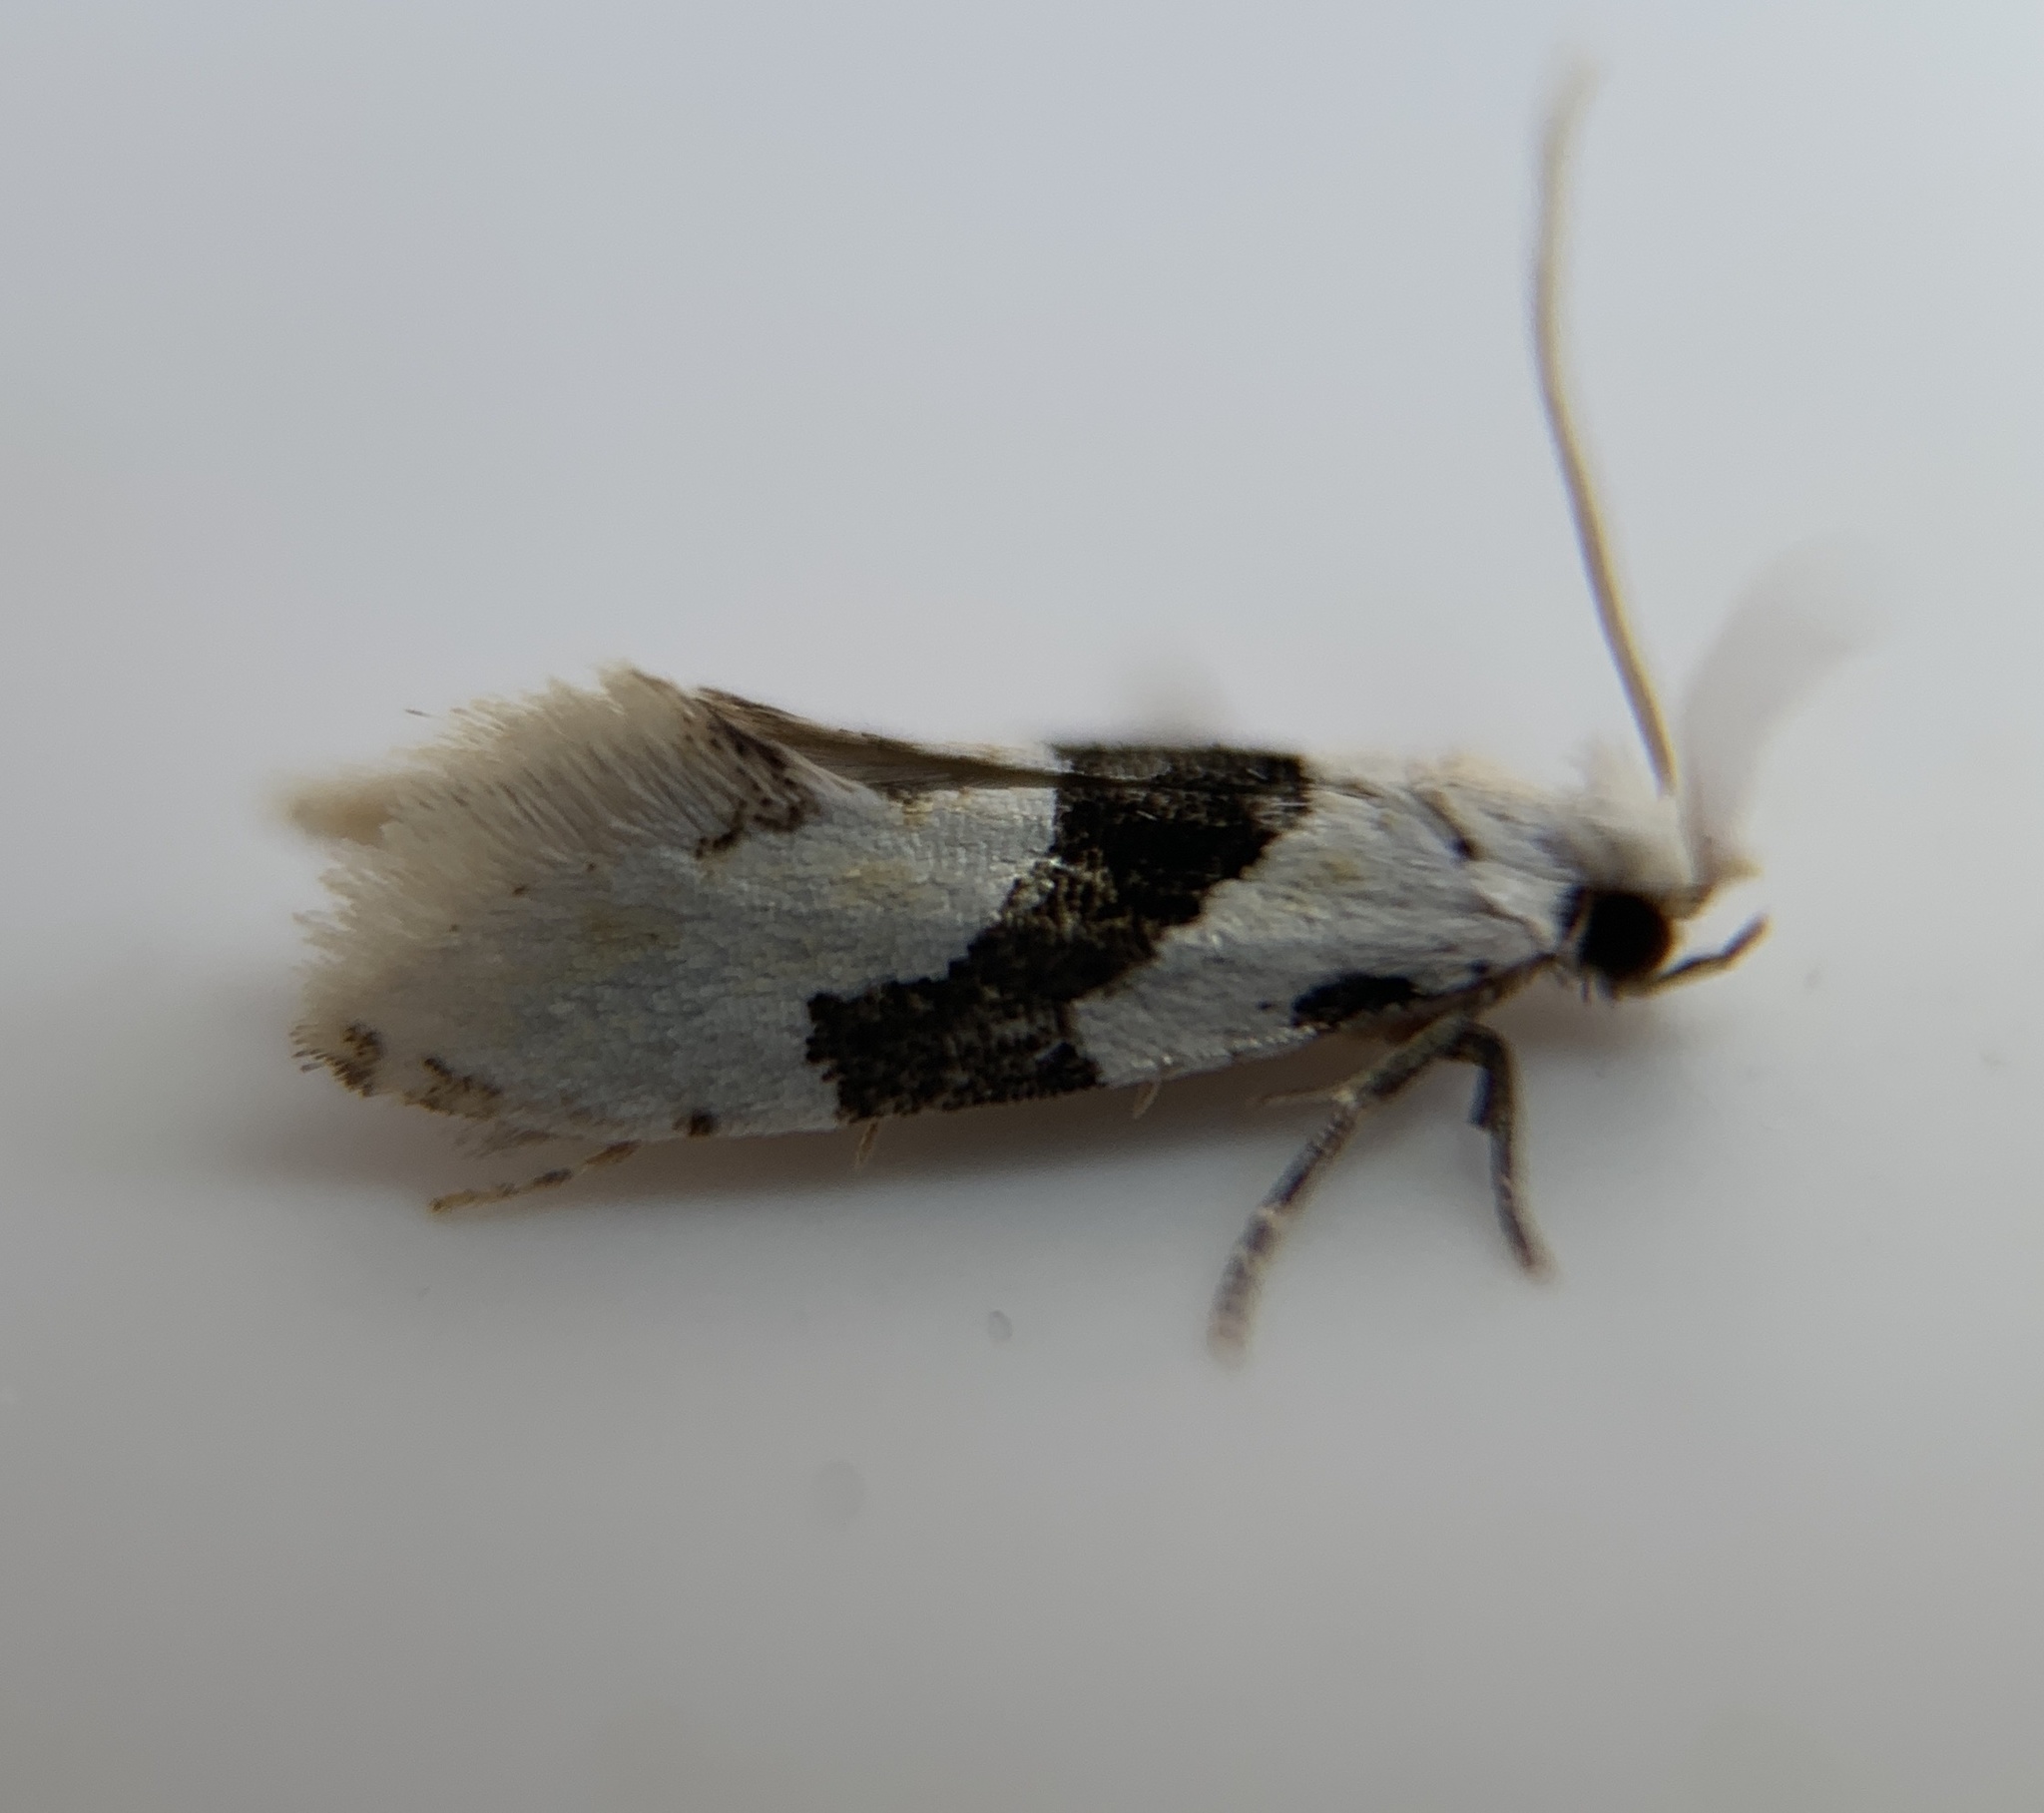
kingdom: Animalia
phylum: Arthropoda
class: Insecta
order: Lepidoptera
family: Tineidae
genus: Nemapogon
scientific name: Nemapogon clematella
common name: Barred white clothes
